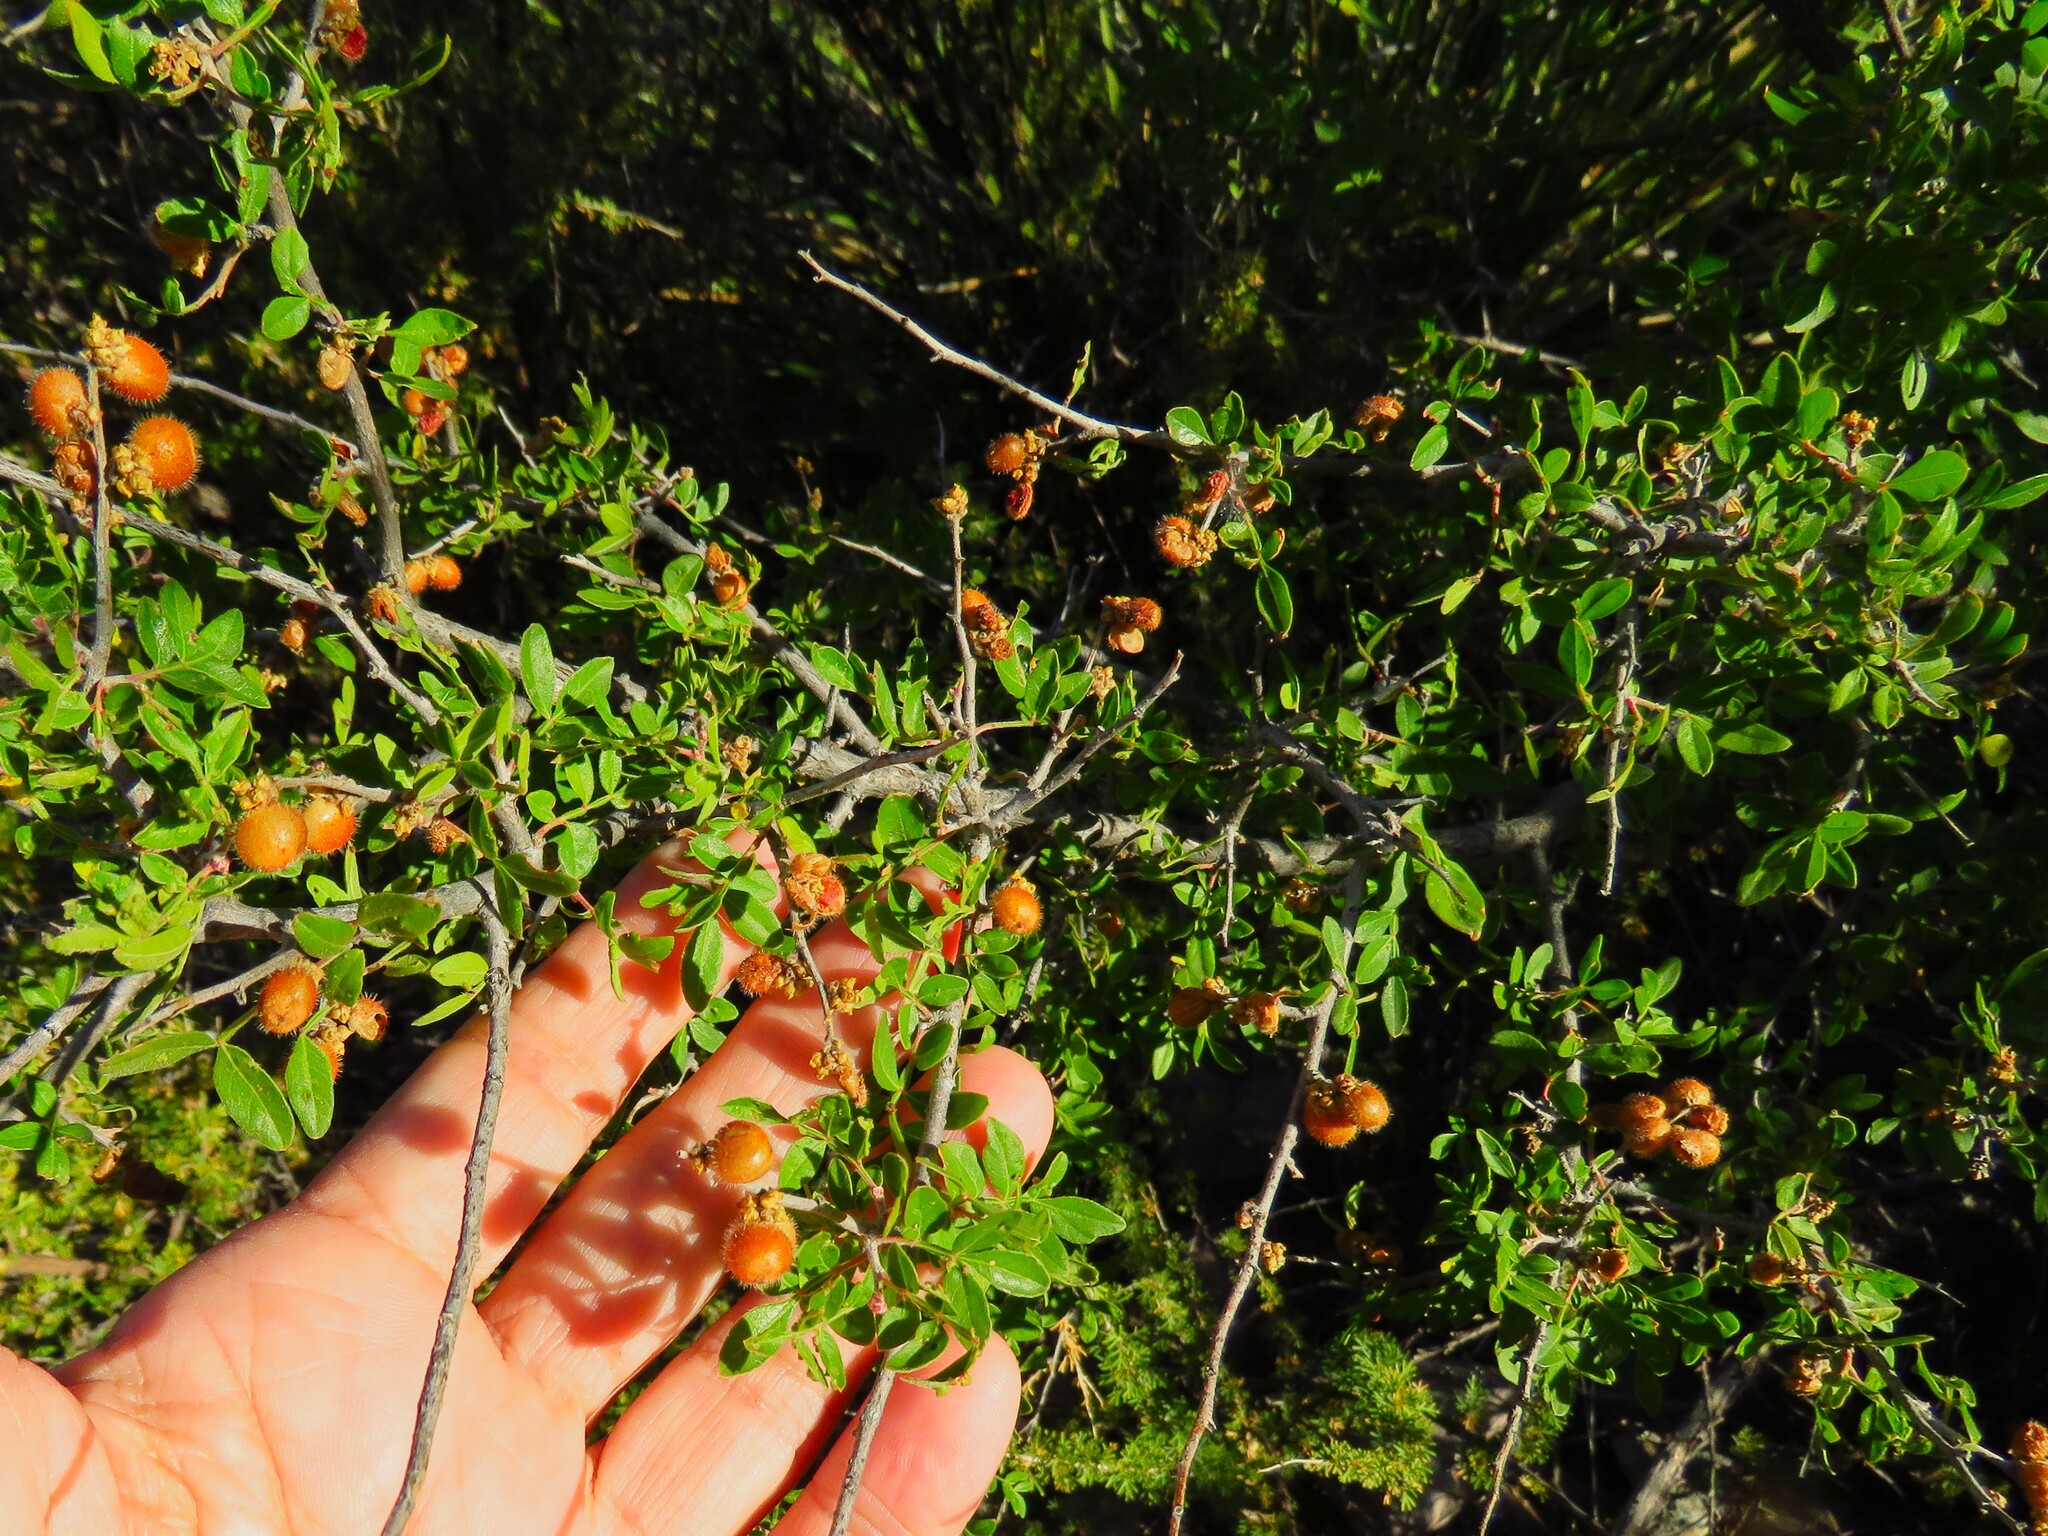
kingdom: Plantae
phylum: Tracheophyta
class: Magnoliopsida
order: Sapindales
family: Anacardiaceae
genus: Rhus
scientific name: Rhus microphylla
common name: Desert sumac
